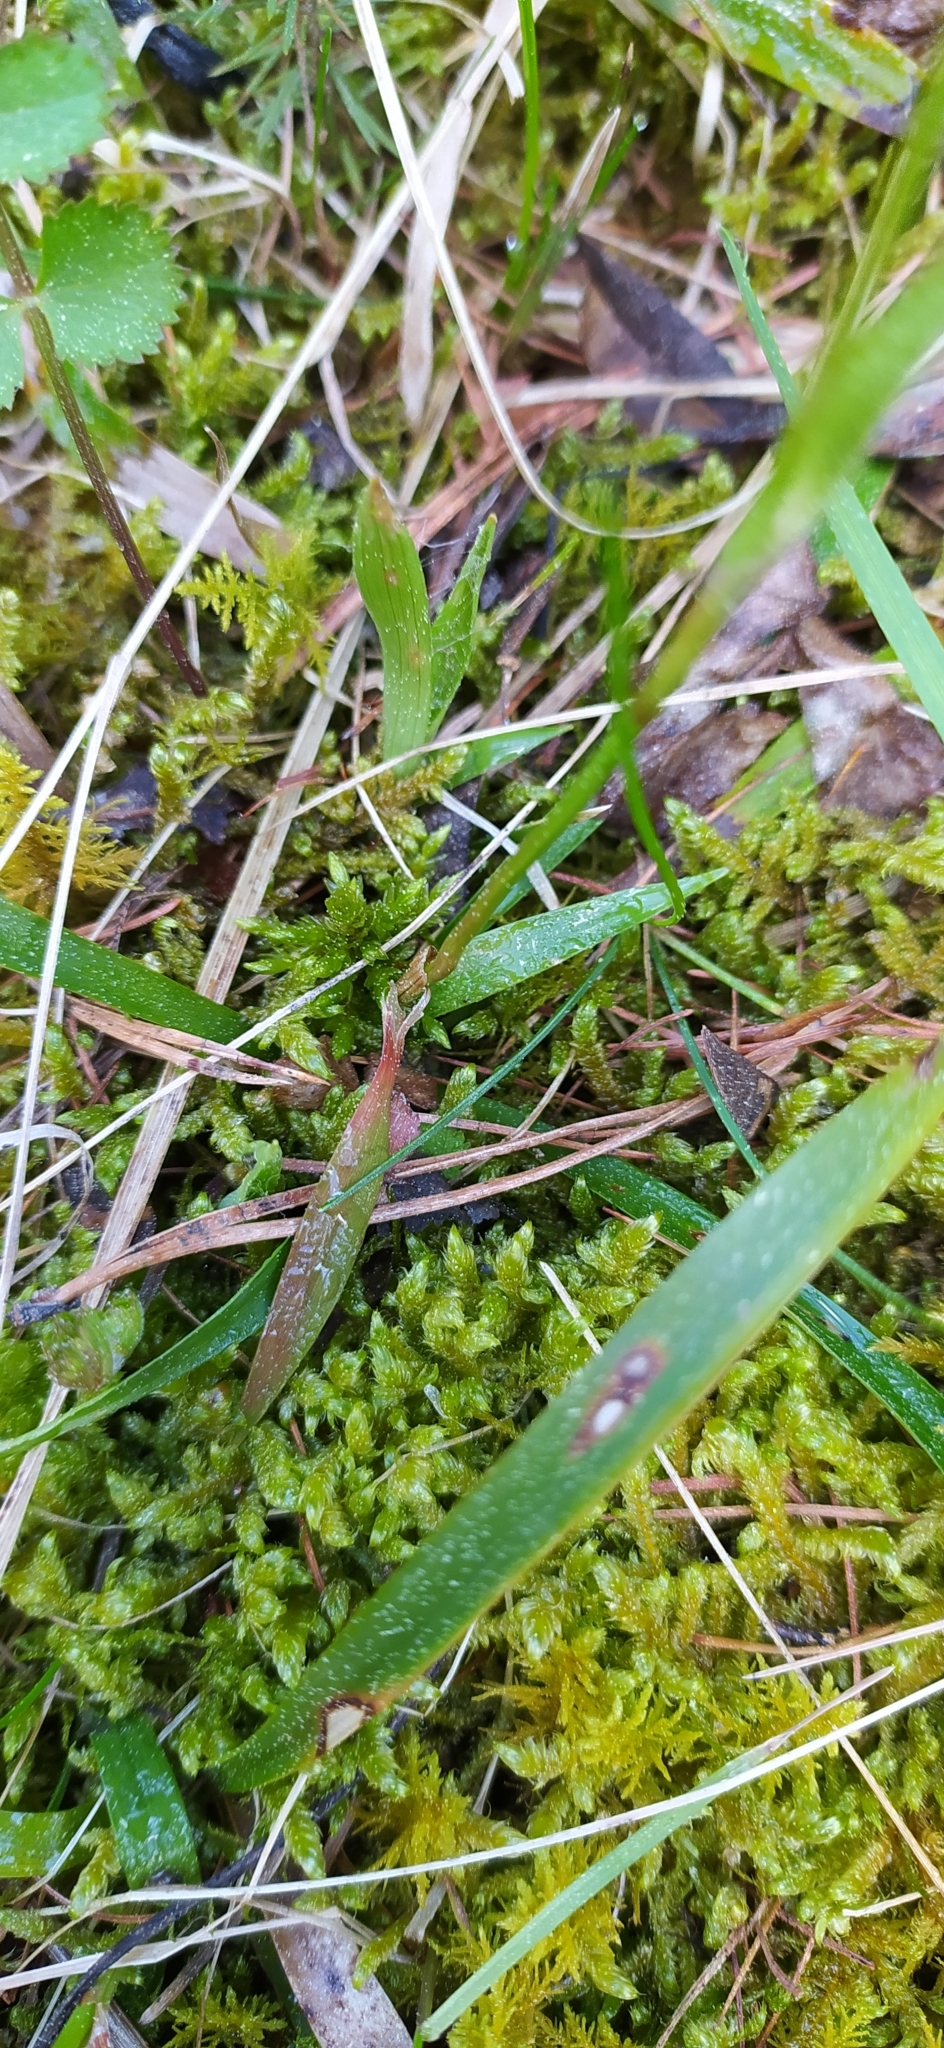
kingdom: Plantae
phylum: Tracheophyta
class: Liliopsida
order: Poales
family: Juncaceae
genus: Luzula
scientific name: Luzula pilosa
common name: Hairy wood-rush
